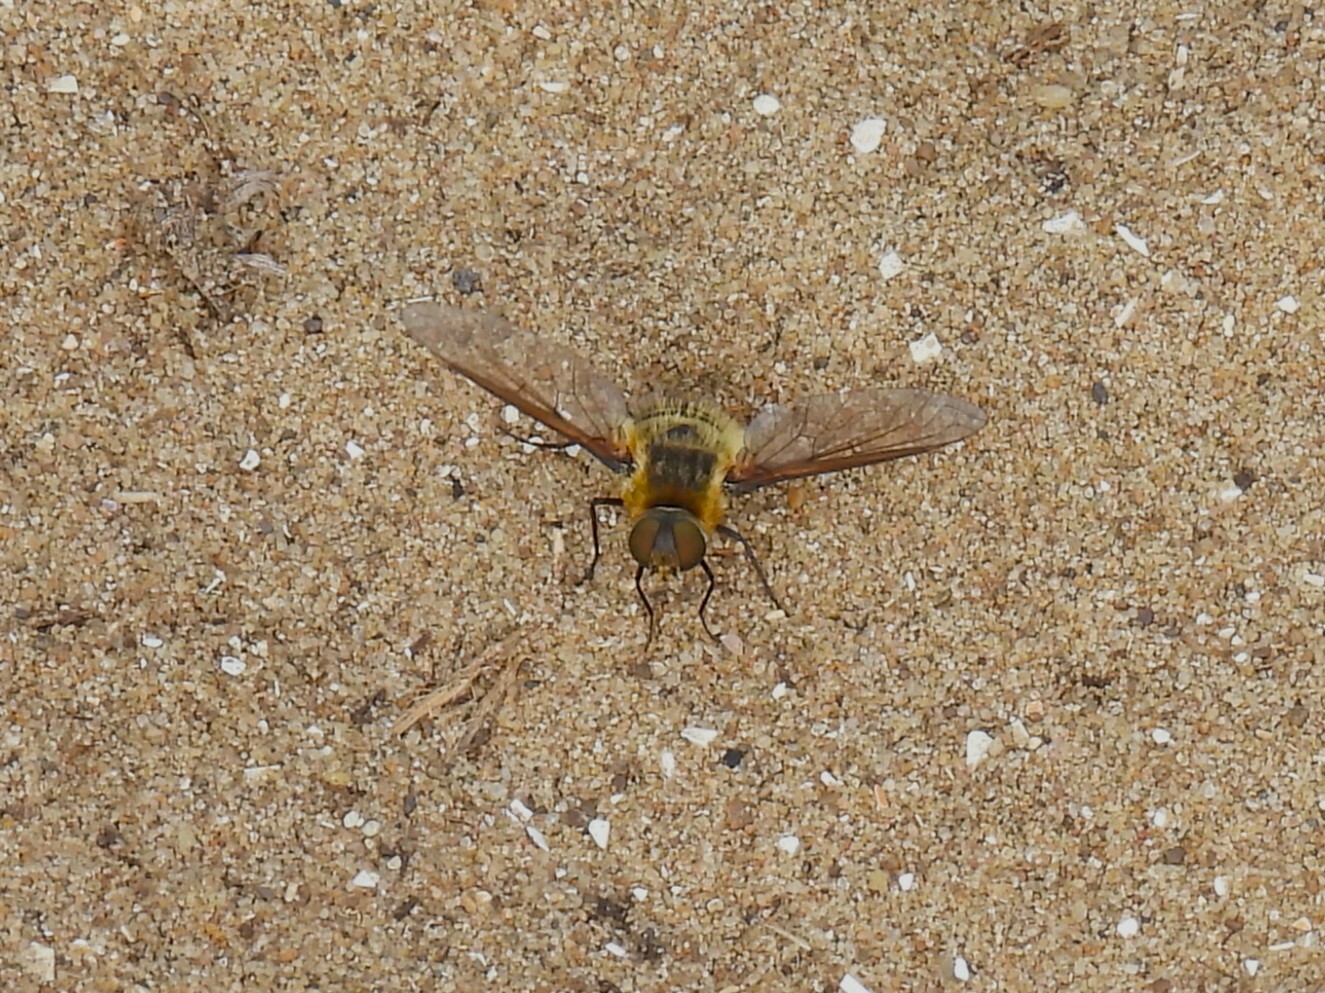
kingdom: Animalia
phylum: Arthropoda
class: Insecta
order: Diptera
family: Bombyliidae
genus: Villa
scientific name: Villa modesta
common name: Dune villa
